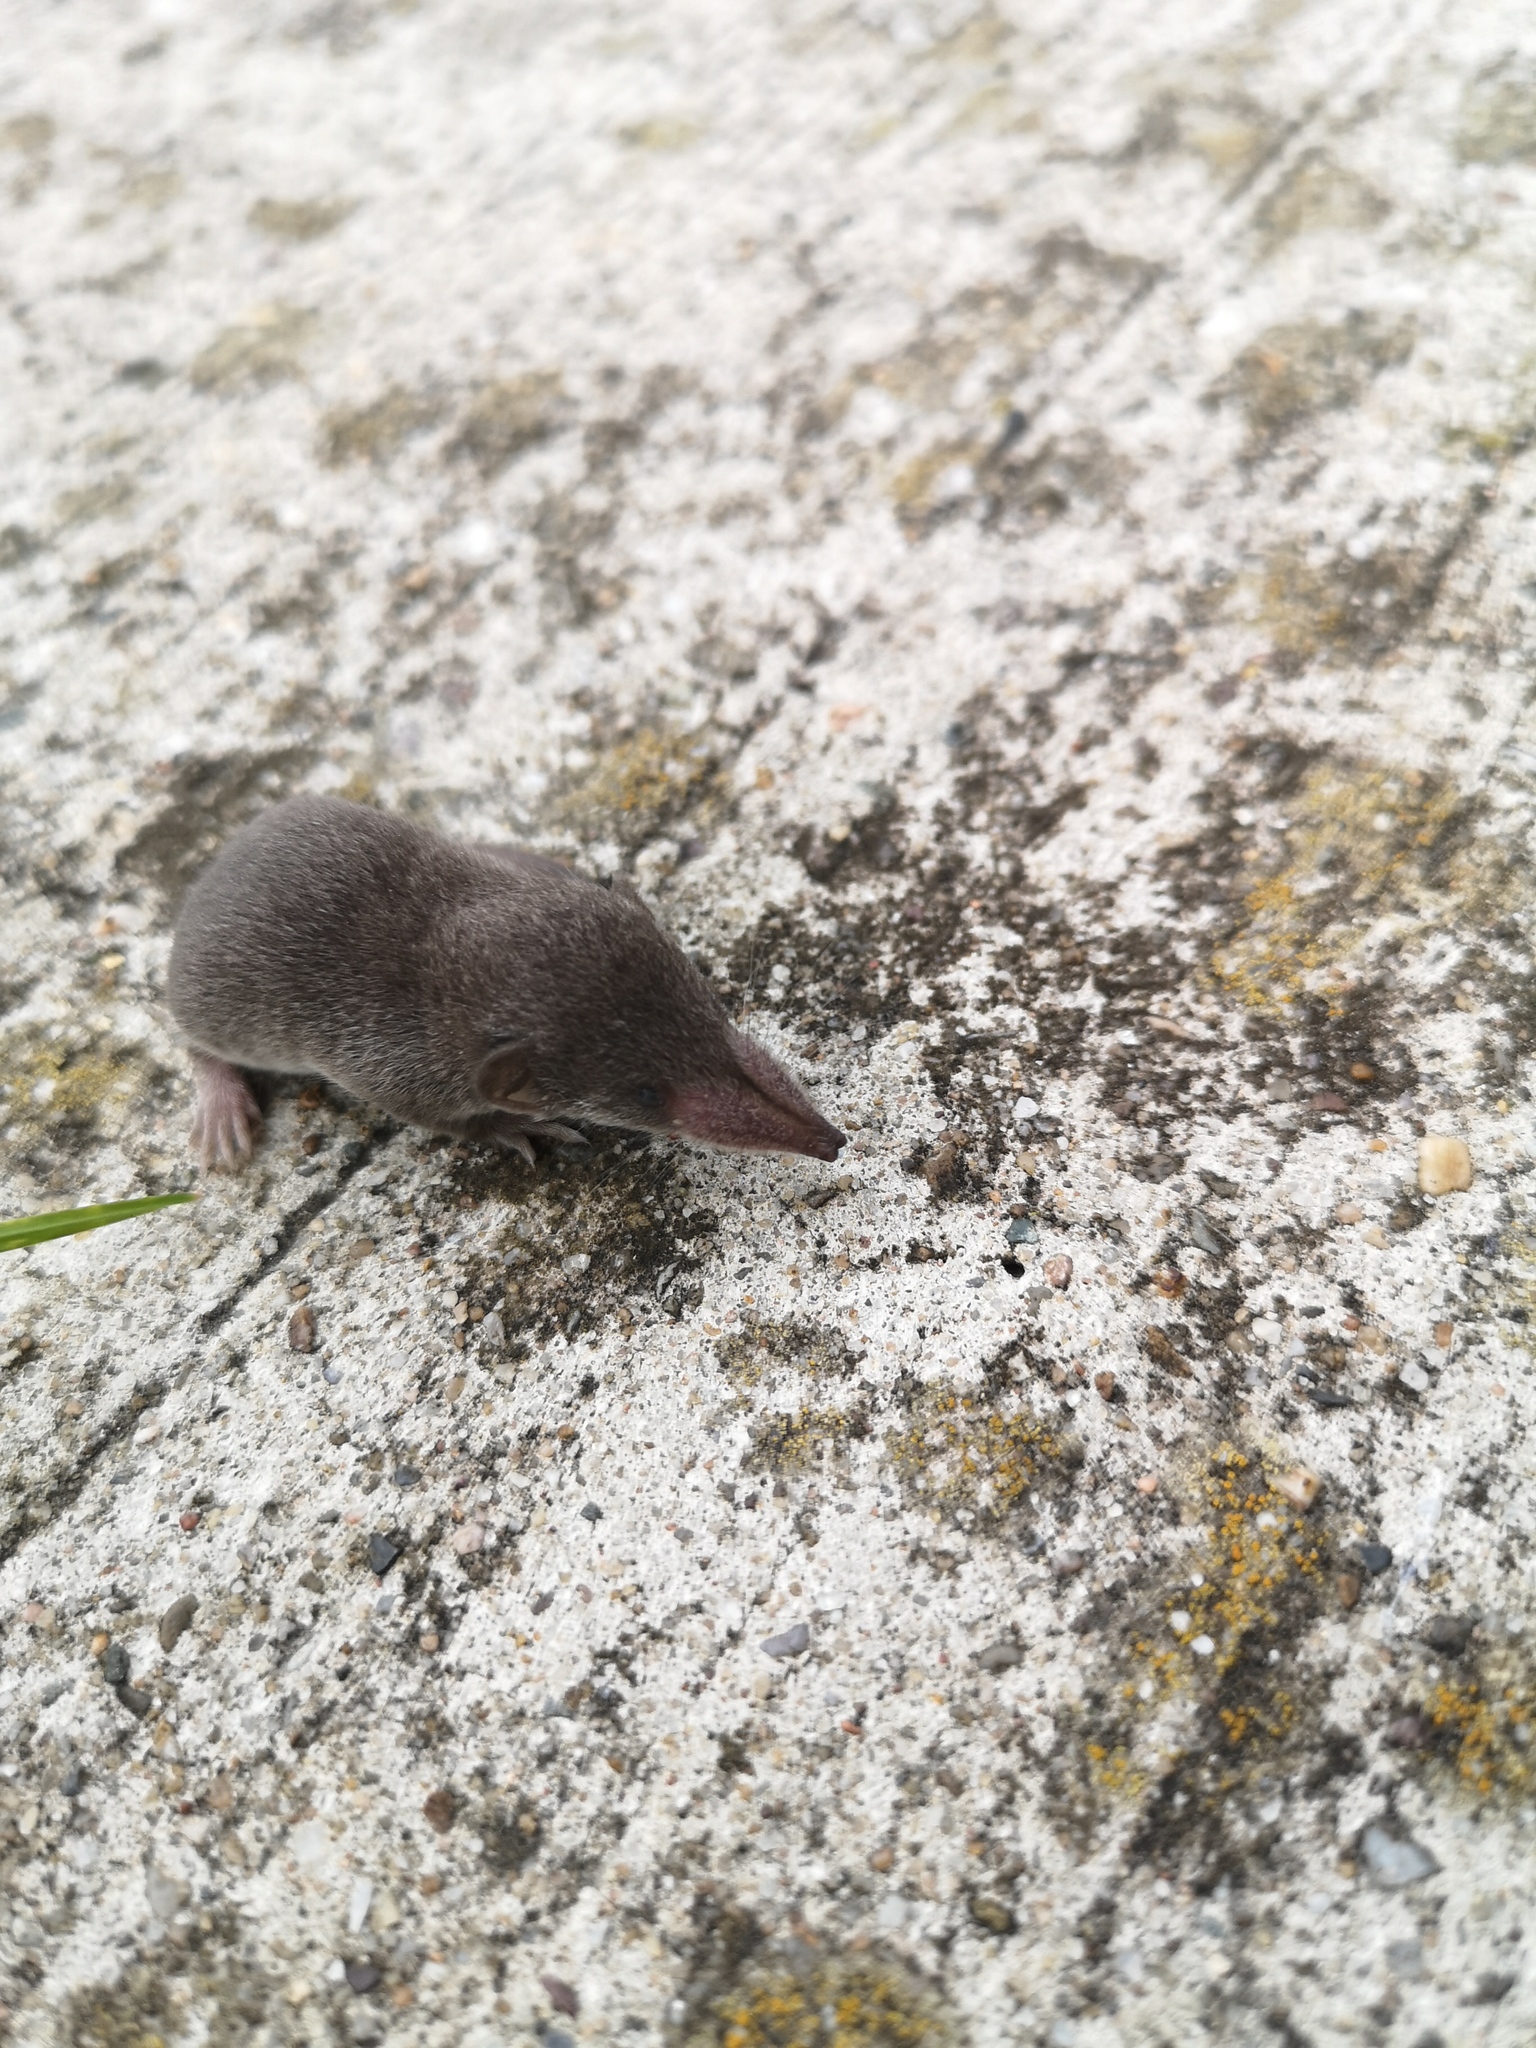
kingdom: Animalia
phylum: Chordata
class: Mammalia
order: Soricomorpha
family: Soricidae
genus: Crocidura
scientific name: Crocidura russula
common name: Greater white-toothed shrew
